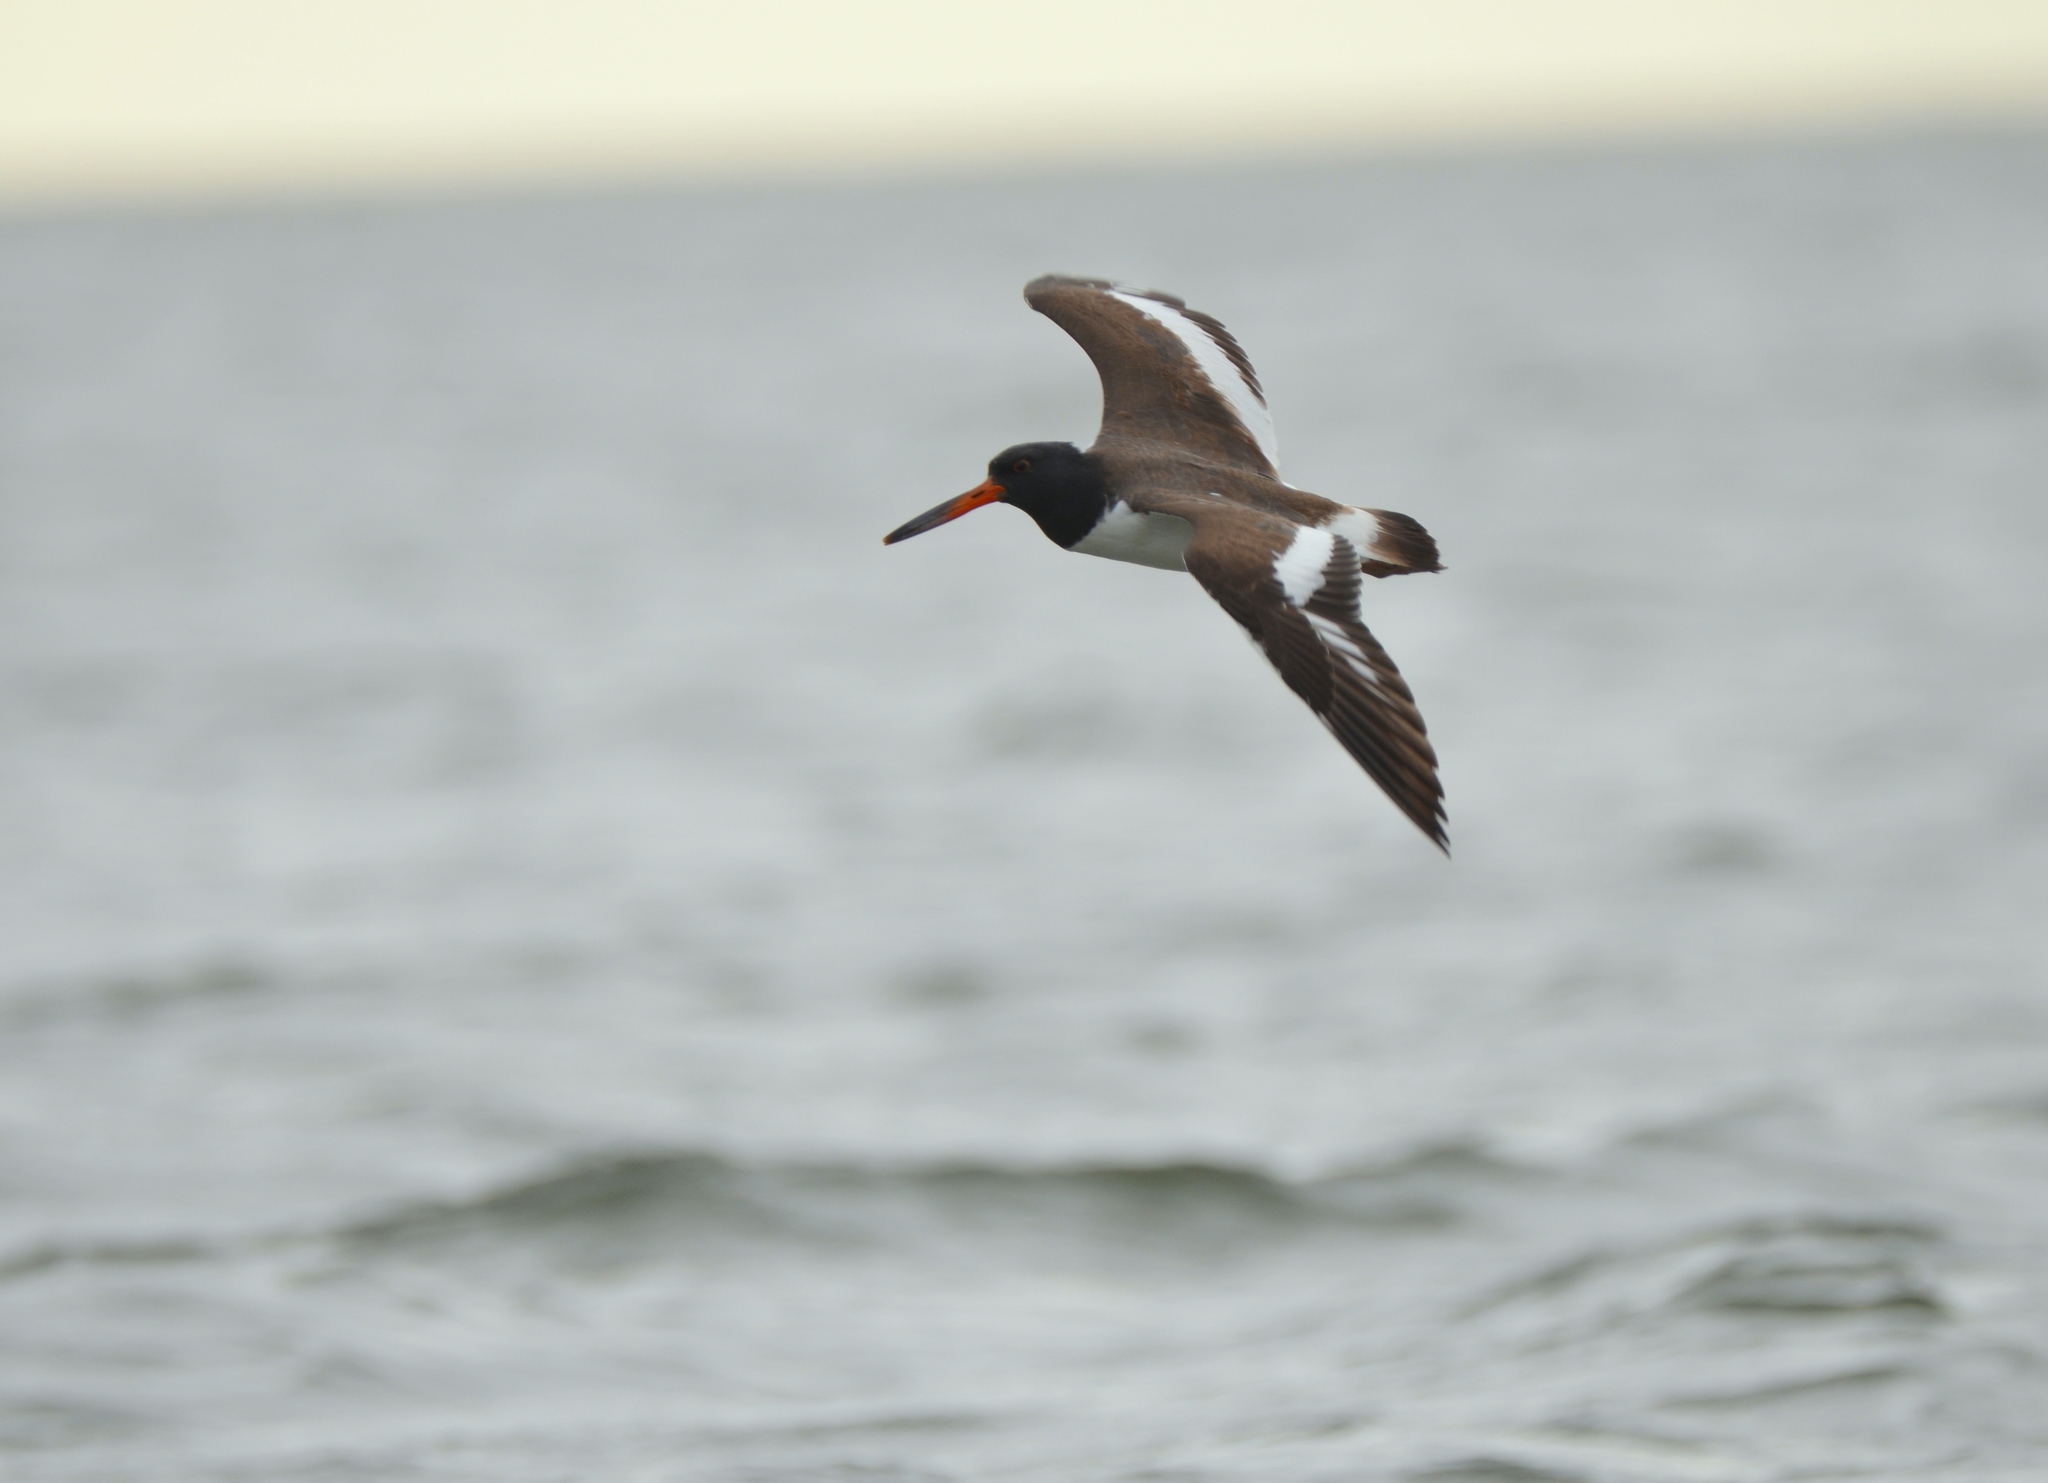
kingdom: Animalia
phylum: Chordata
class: Aves
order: Charadriiformes
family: Haematopodidae
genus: Haematopus
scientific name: Haematopus palliatus
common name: American oystercatcher
